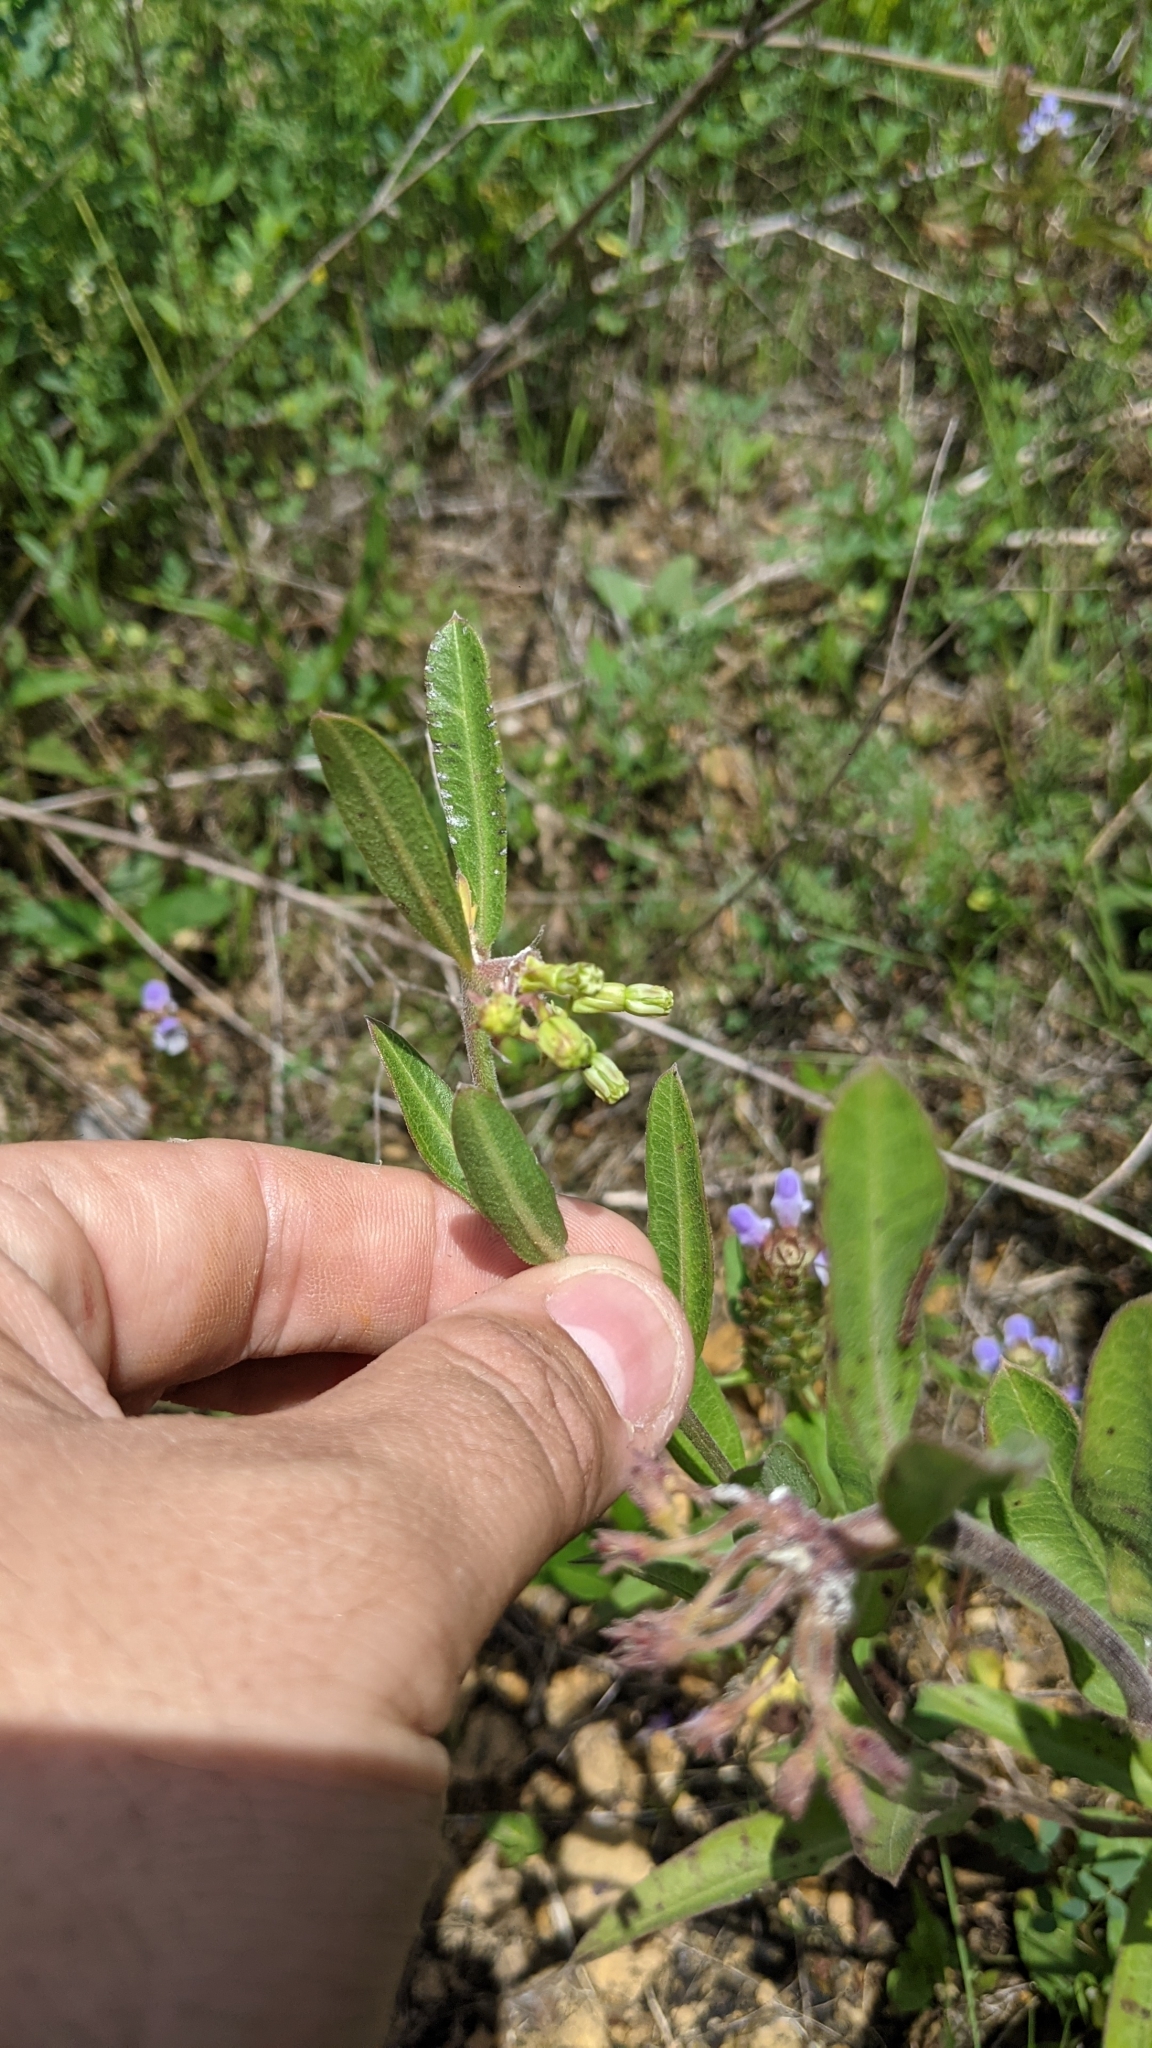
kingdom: Plantae
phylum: Tracheophyta
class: Magnoliopsida
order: Gentianales
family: Apocynaceae
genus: Asclepias
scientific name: Asclepias viridiflora
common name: Green comet milkweed
